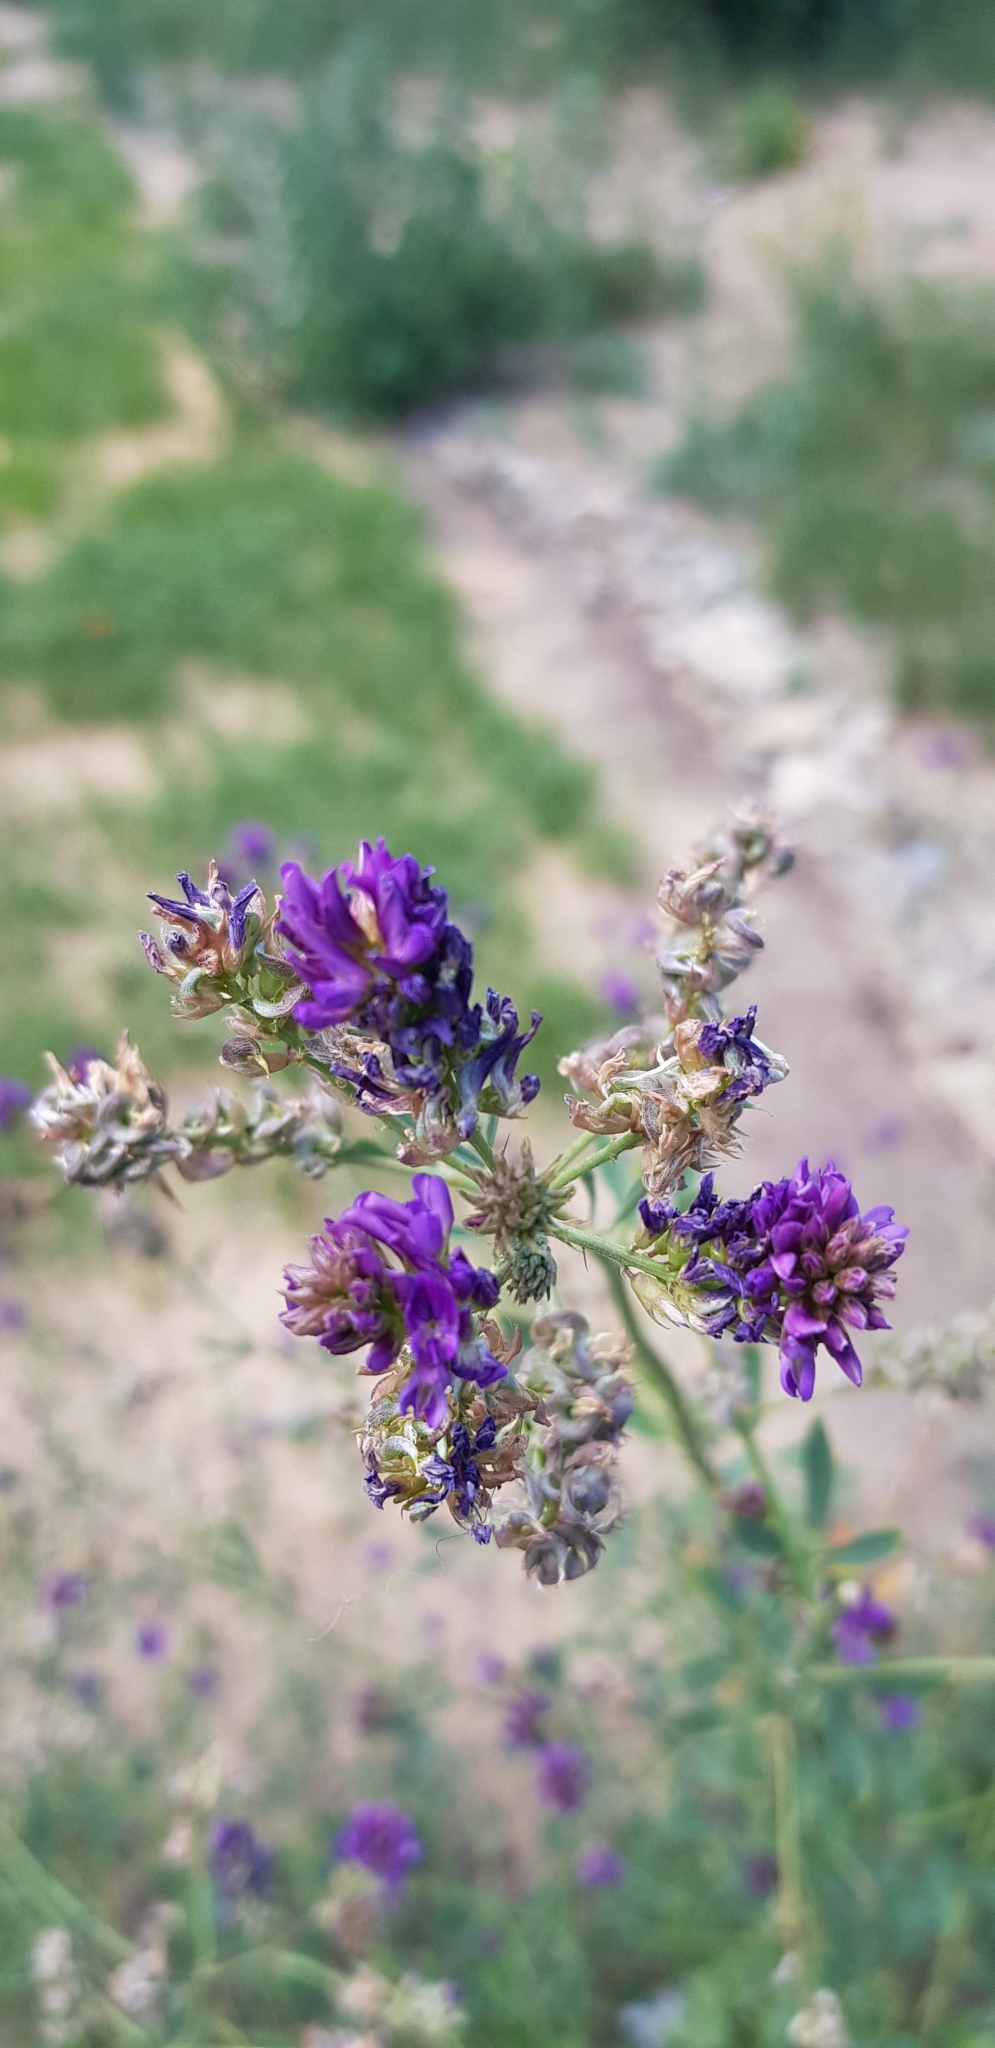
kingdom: Plantae
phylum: Tracheophyta
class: Magnoliopsida
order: Fabales
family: Fabaceae
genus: Medicago
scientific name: Medicago sativa
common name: Alfalfa
